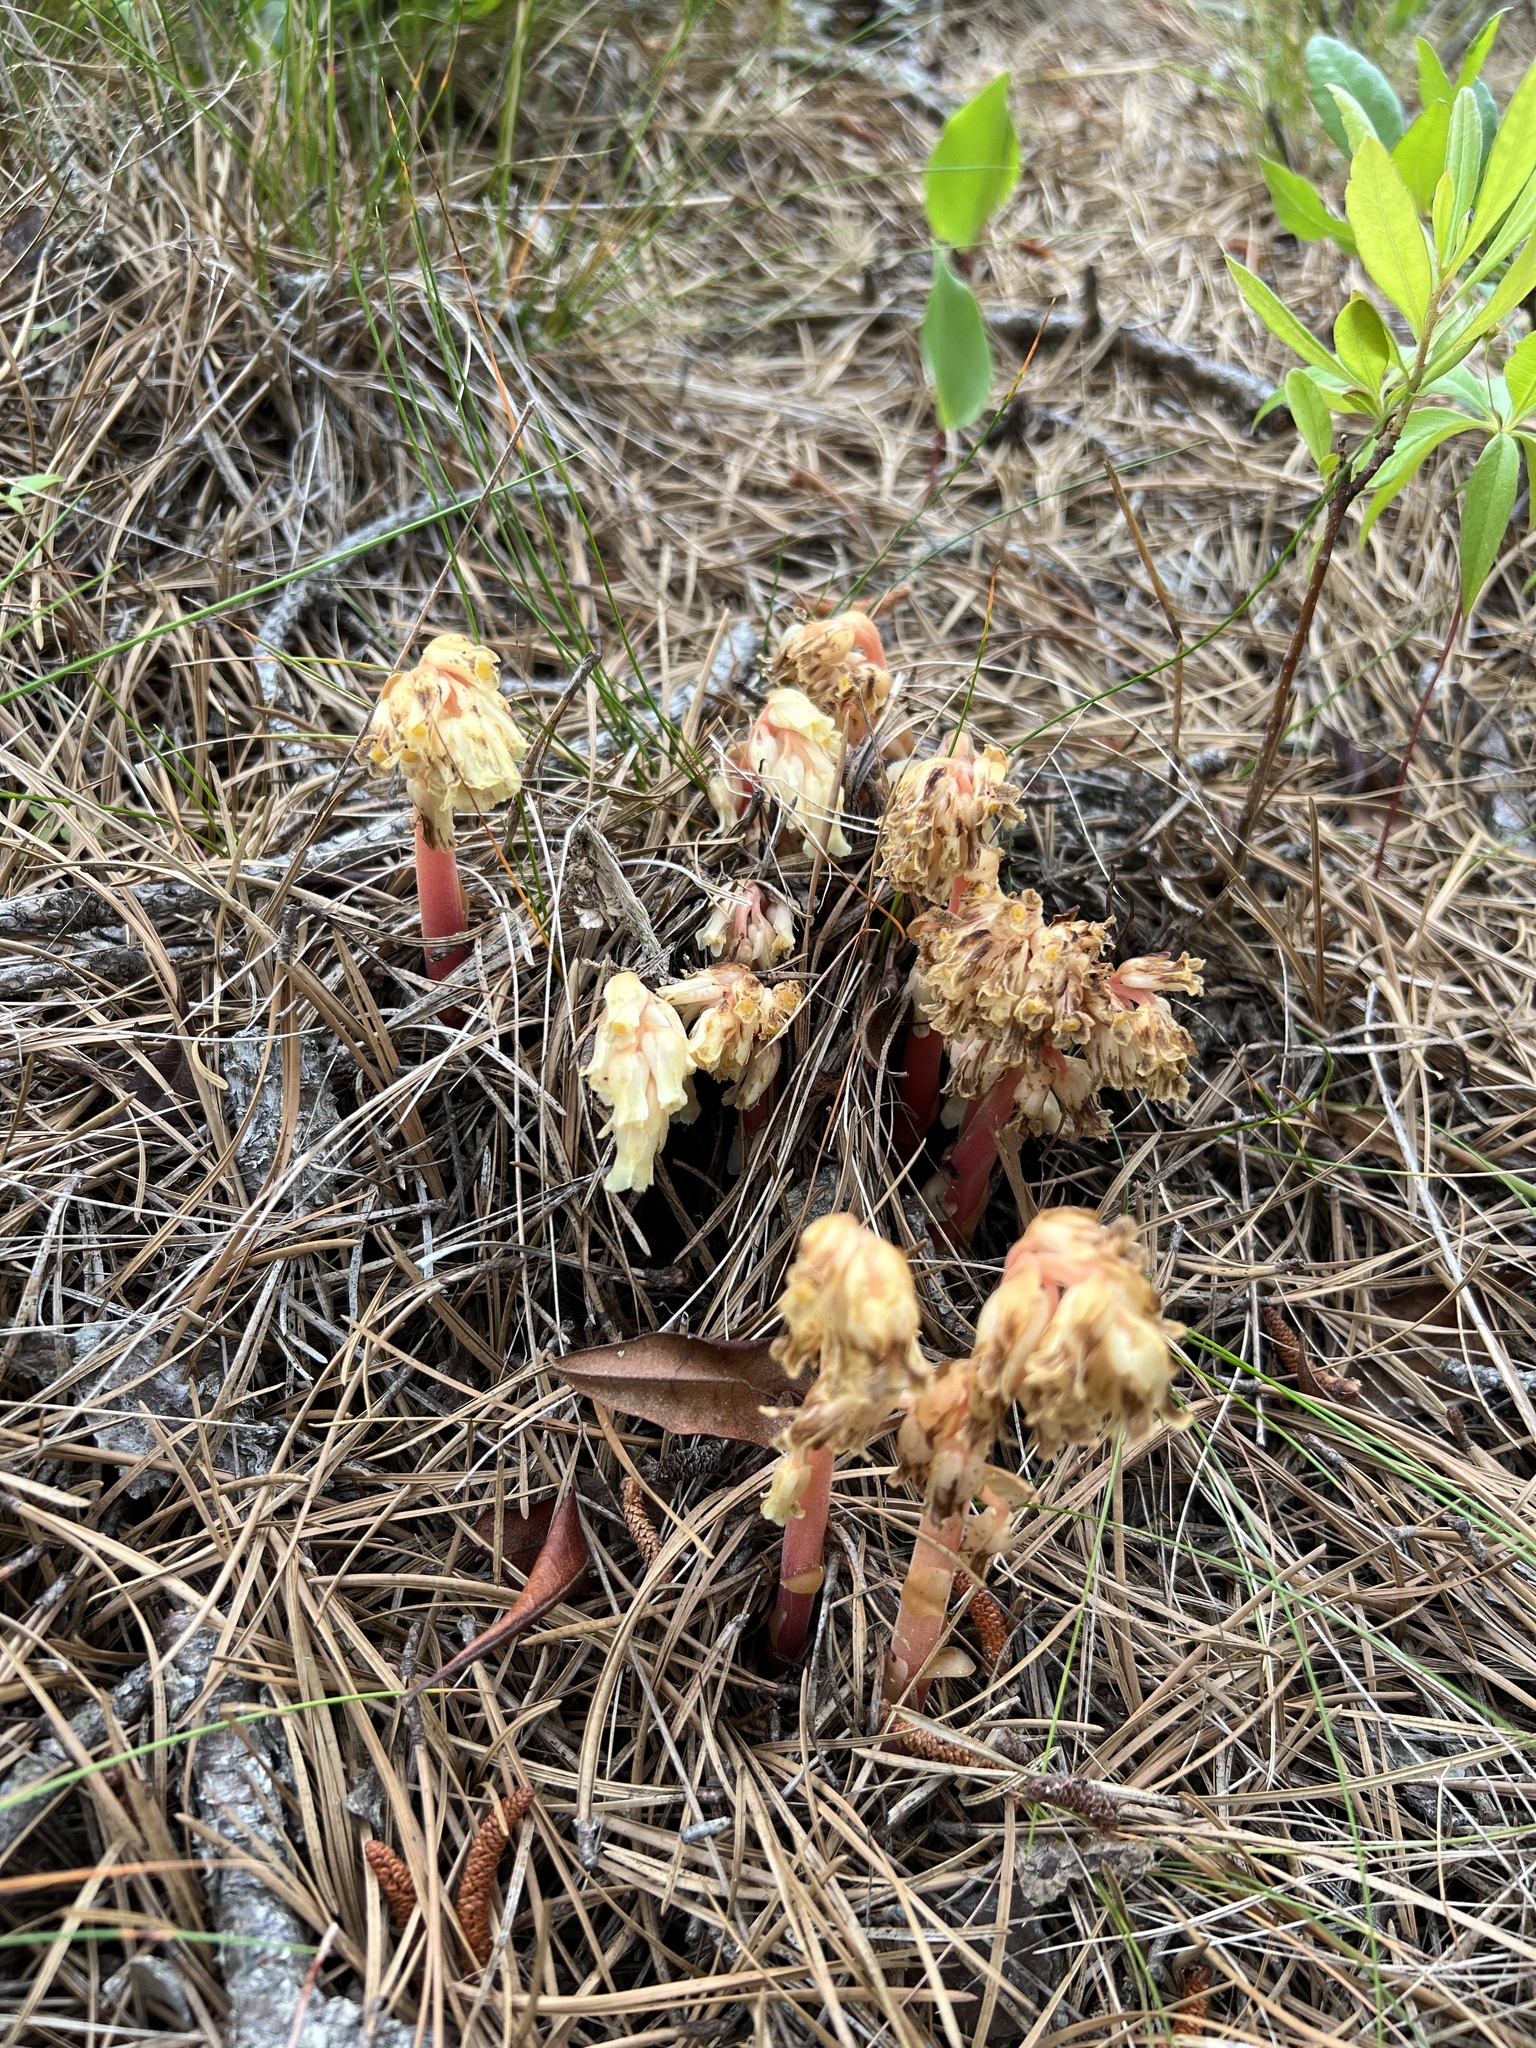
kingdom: Plantae
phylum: Tracheophyta
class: Magnoliopsida
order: Ericales
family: Ericaceae
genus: Hypopitys
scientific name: Hypopitys monotropa
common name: Yellow bird's-nest
